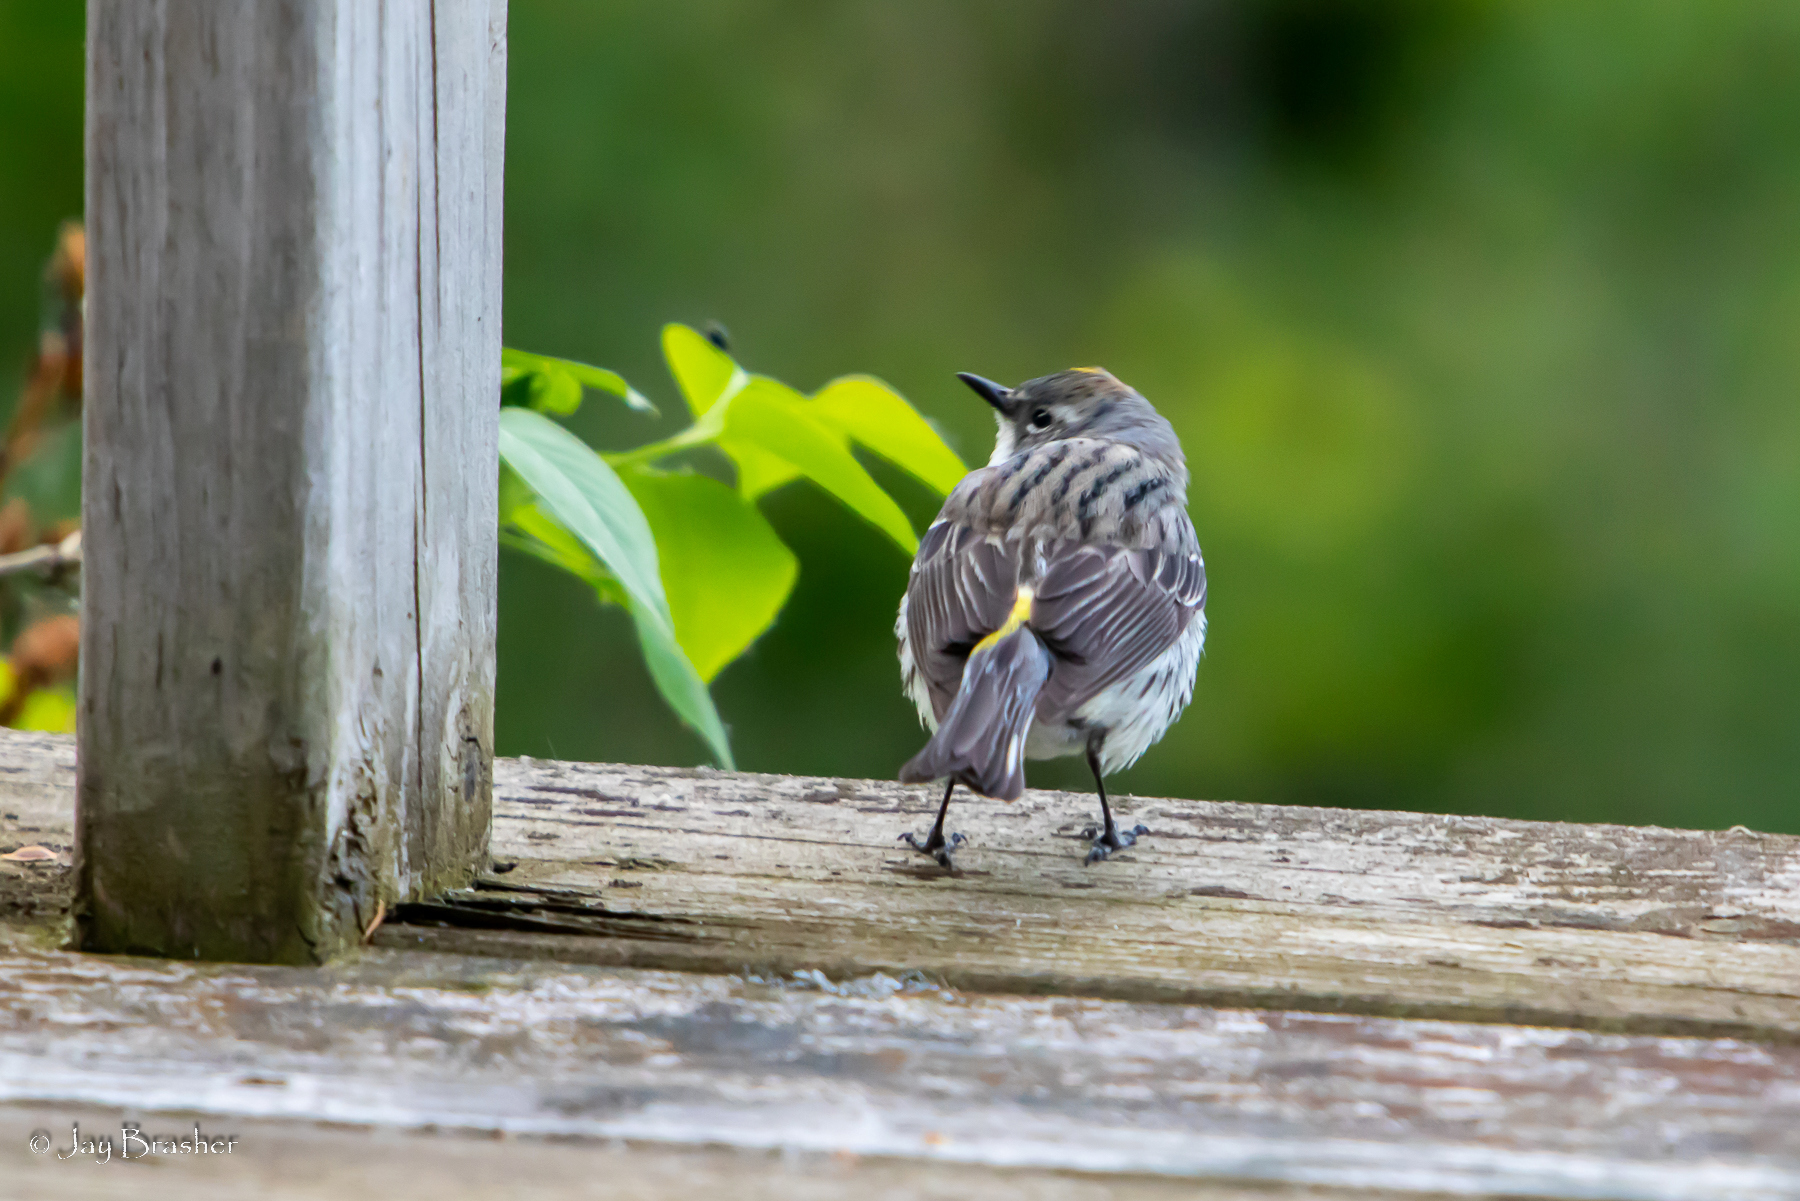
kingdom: Animalia
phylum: Chordata
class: Aves
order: Passeriformes
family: Parulidae
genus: Setophaga
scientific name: Setophaga coronata
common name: Myrtle warbler
